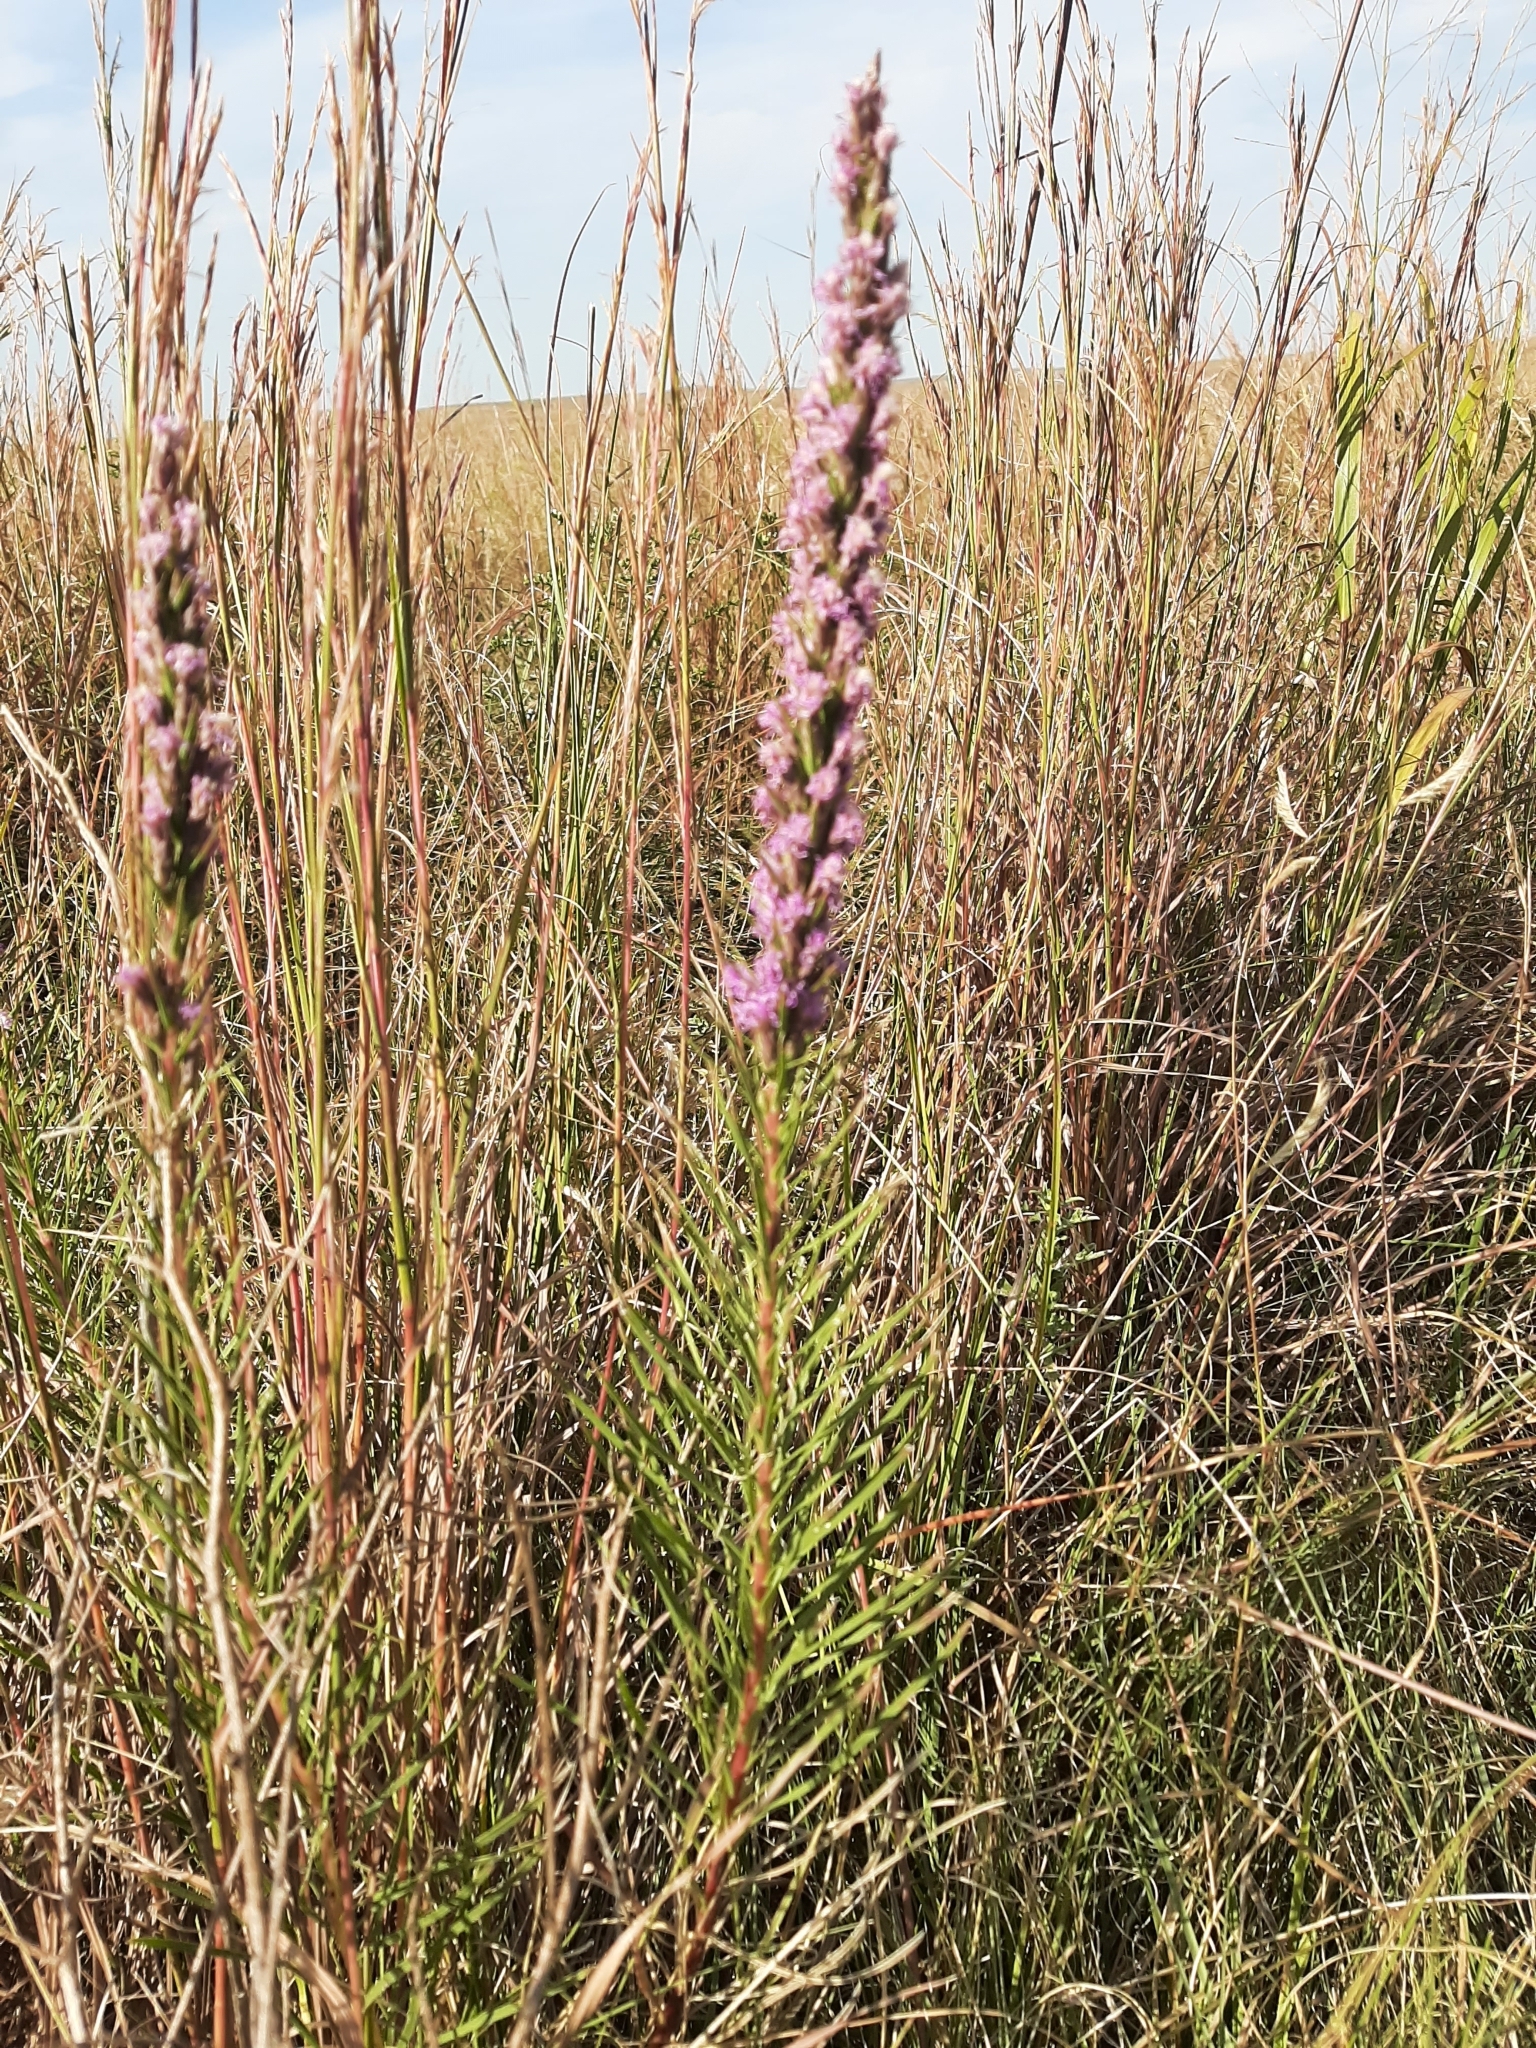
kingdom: Plantae
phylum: Tracheophyta
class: Magnoliopsida
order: Asterales
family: Asteraceae
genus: Liatris
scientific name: Liatris punctata
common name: Dotted gayfeather
